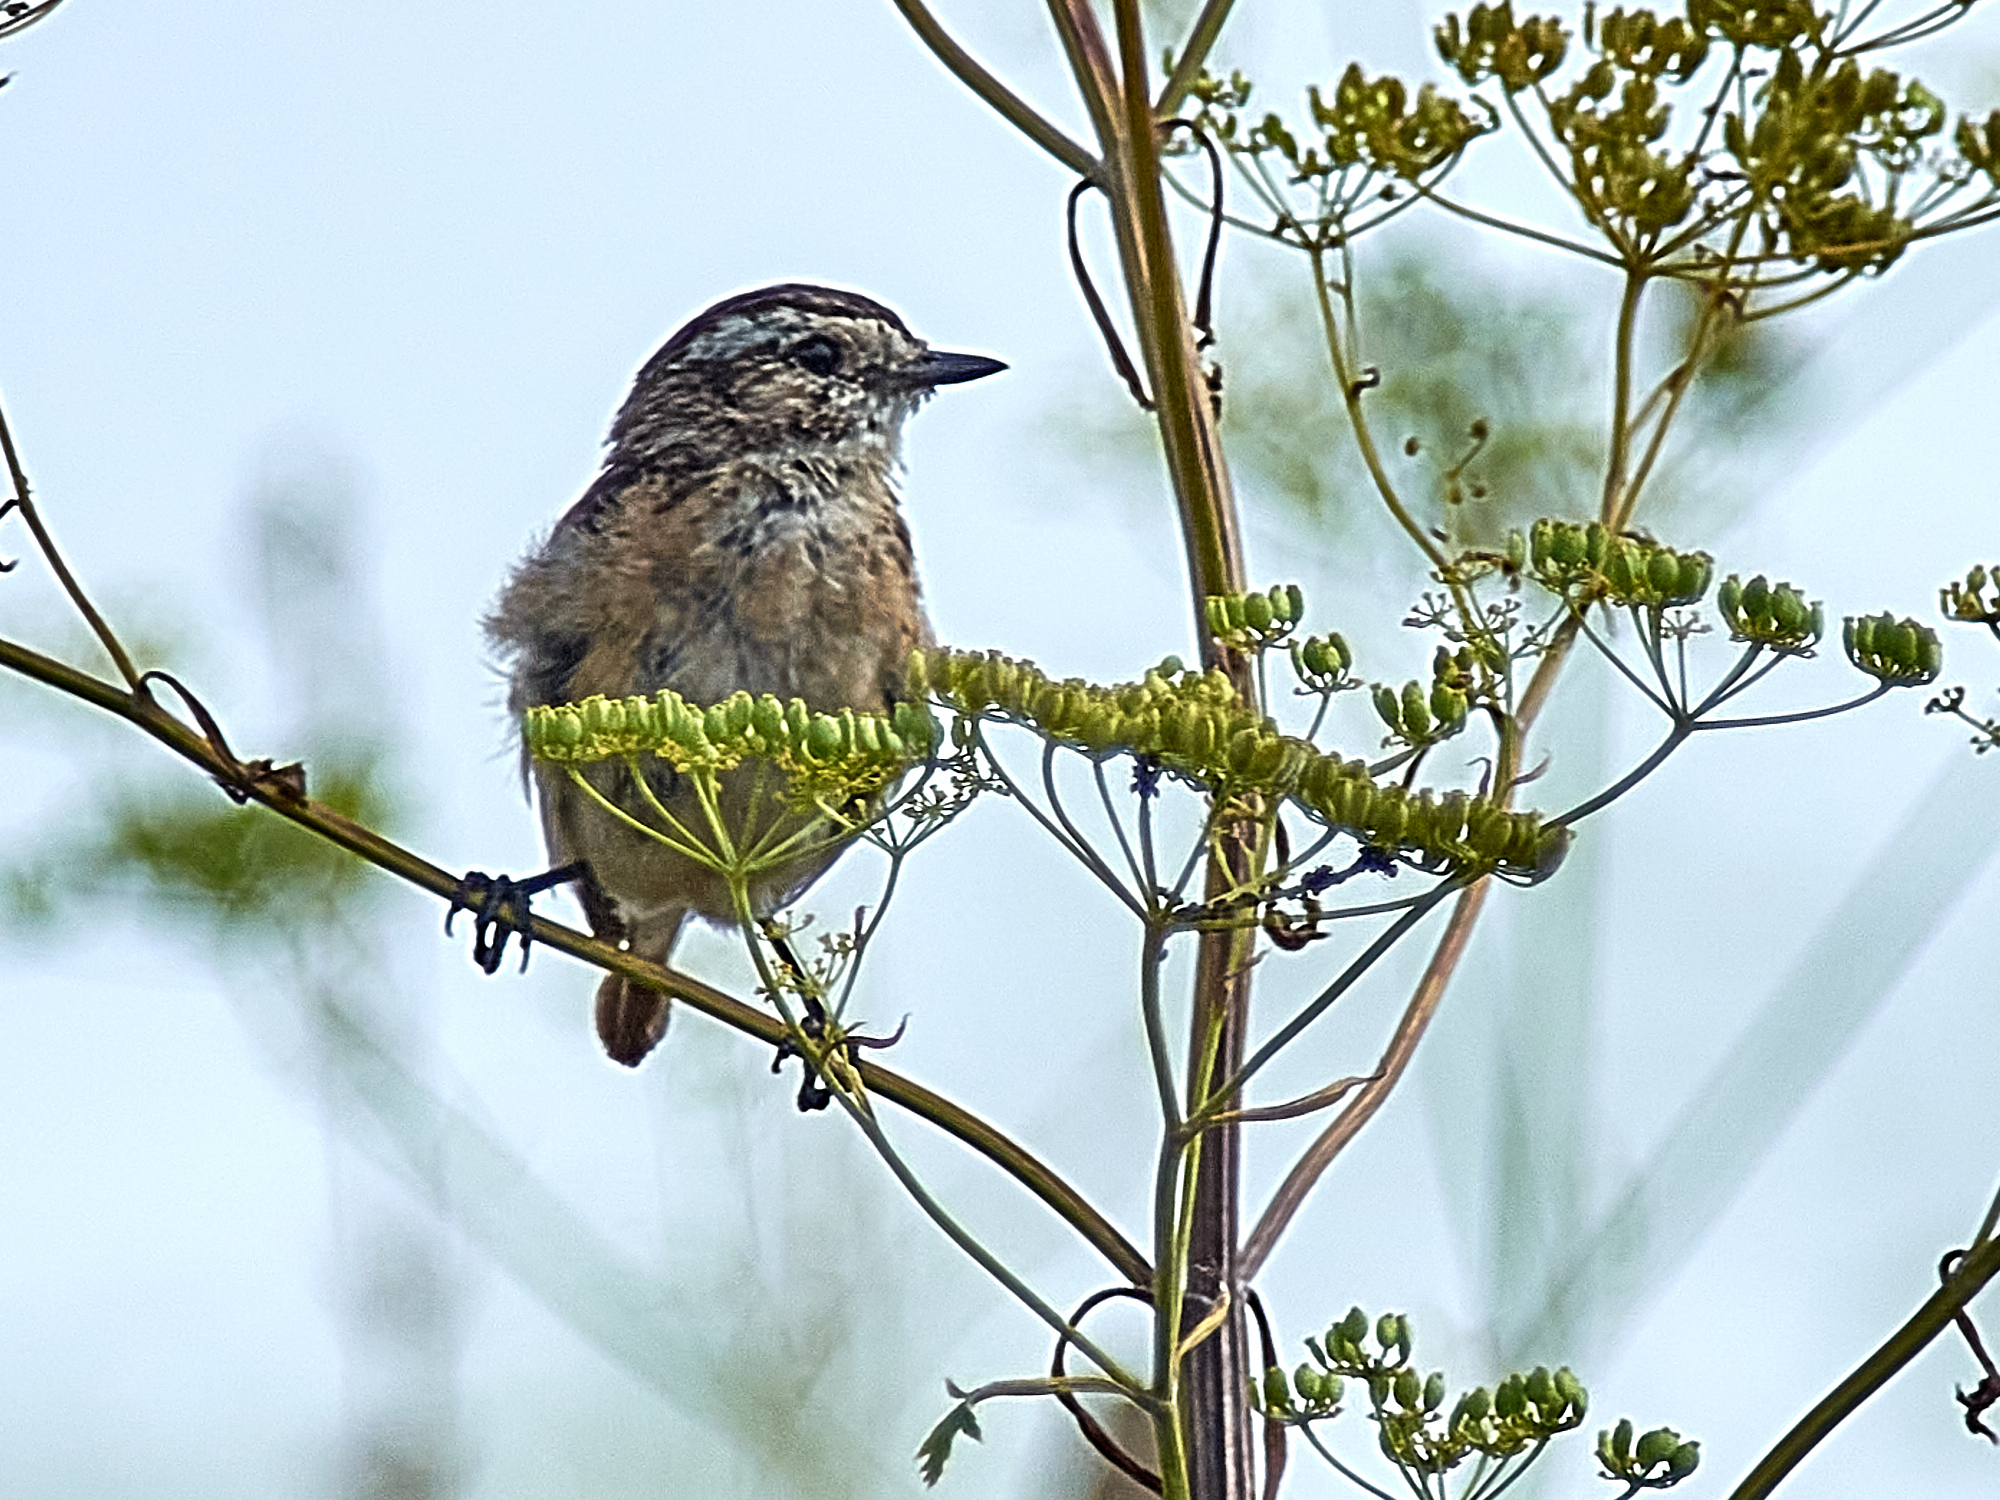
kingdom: Animalia
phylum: Chordata
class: Aves
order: Passeriformes
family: Muscicapidae
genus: Saxicola
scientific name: Saxicola rubetra
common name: Whinchat
